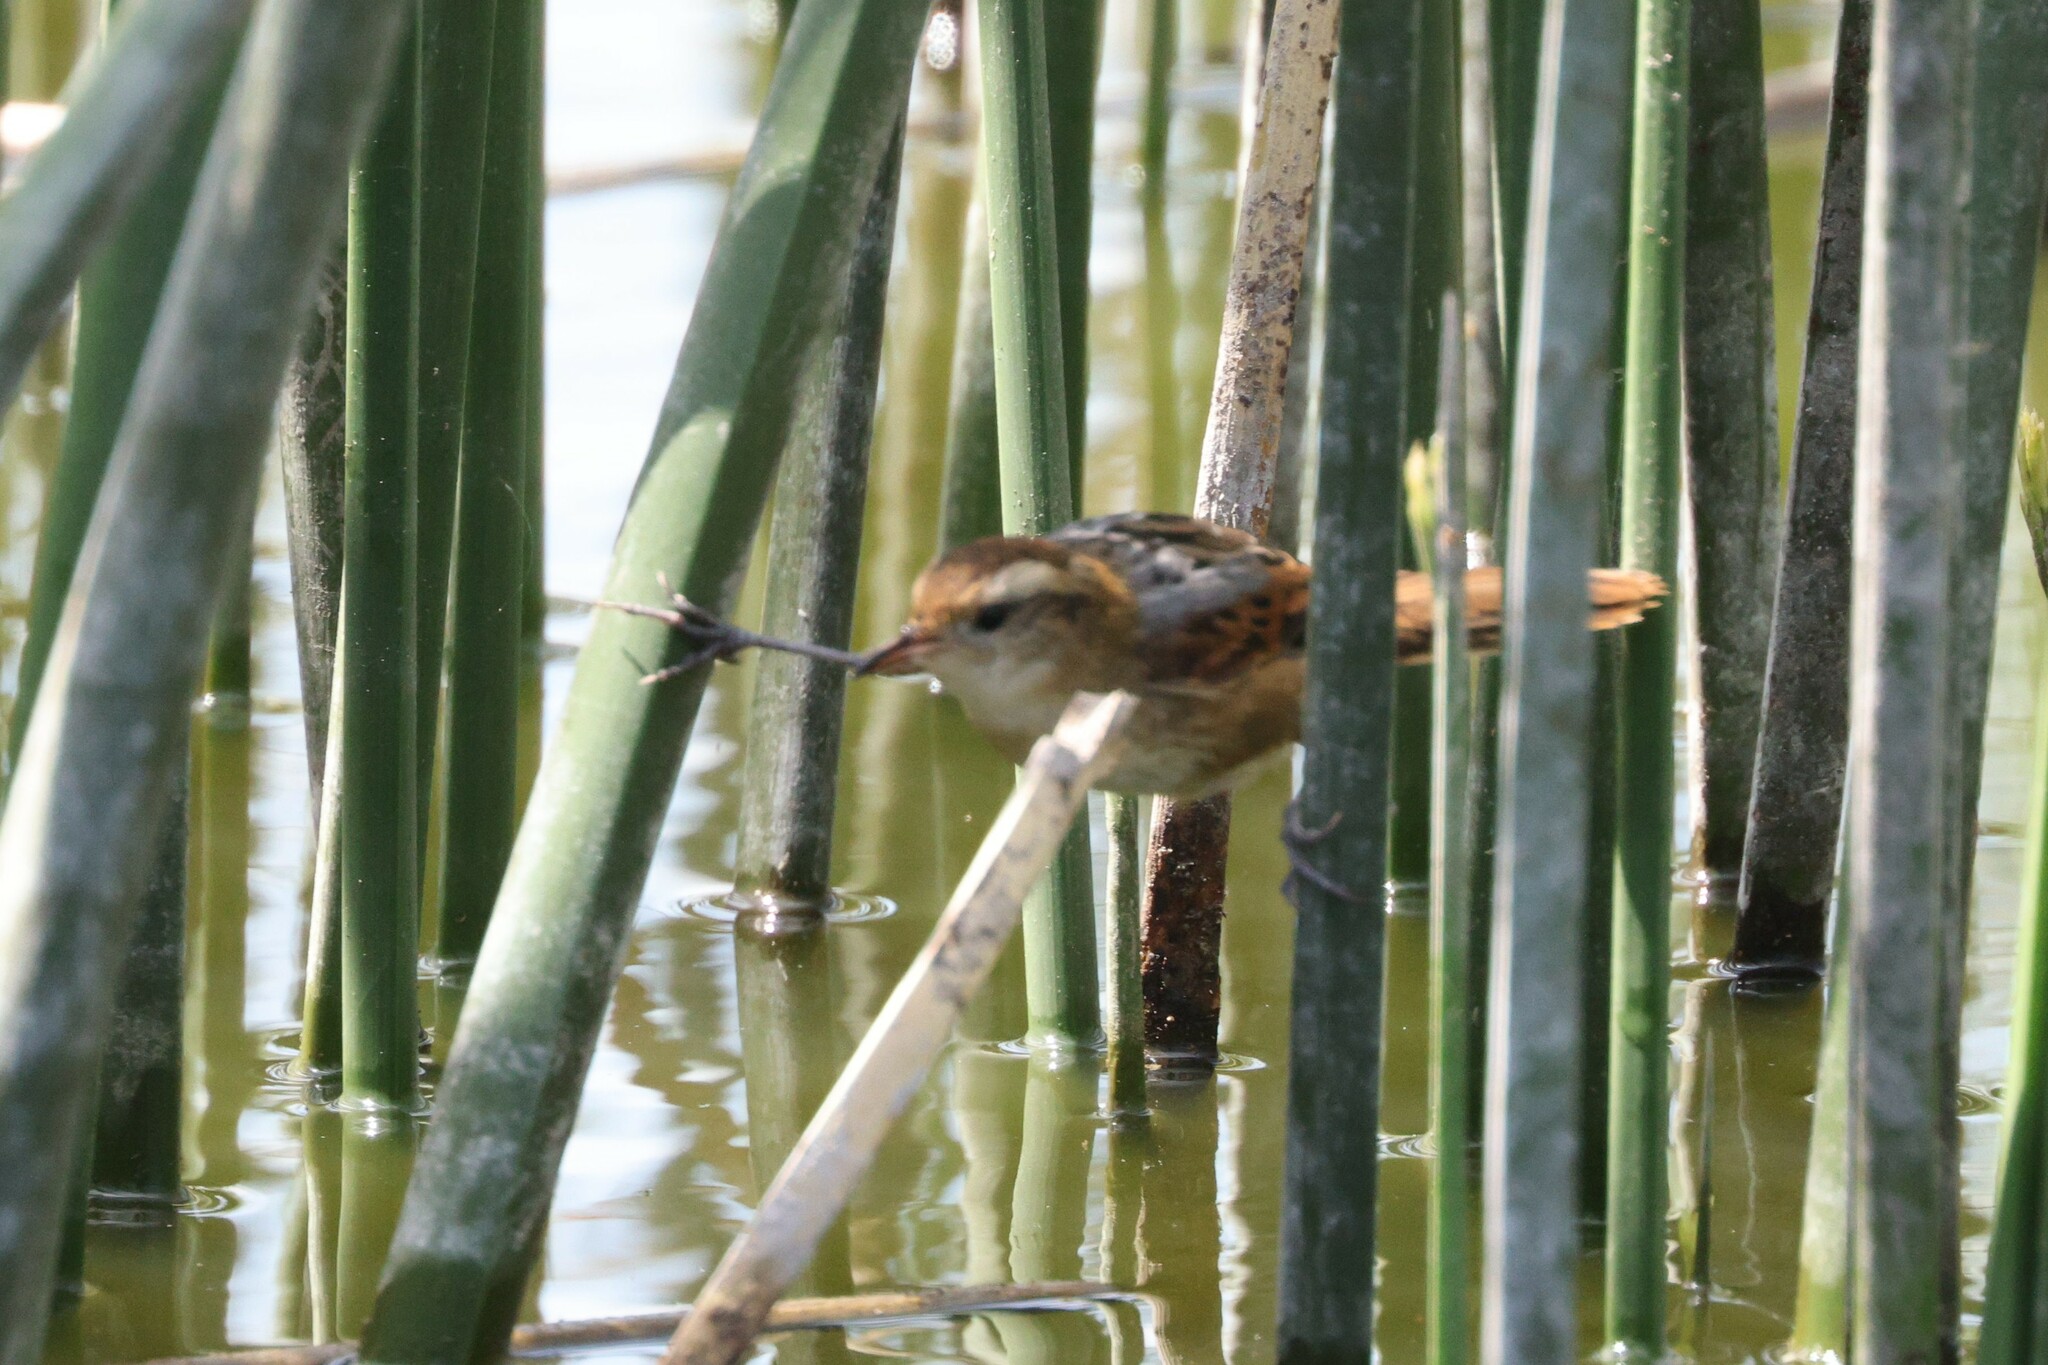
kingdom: Animalia
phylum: Chordata
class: Aves
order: Passeriformes
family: Furnariidae
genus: Phleocryptes
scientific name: Phleocryptes melanops
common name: Wren-like rushbird
